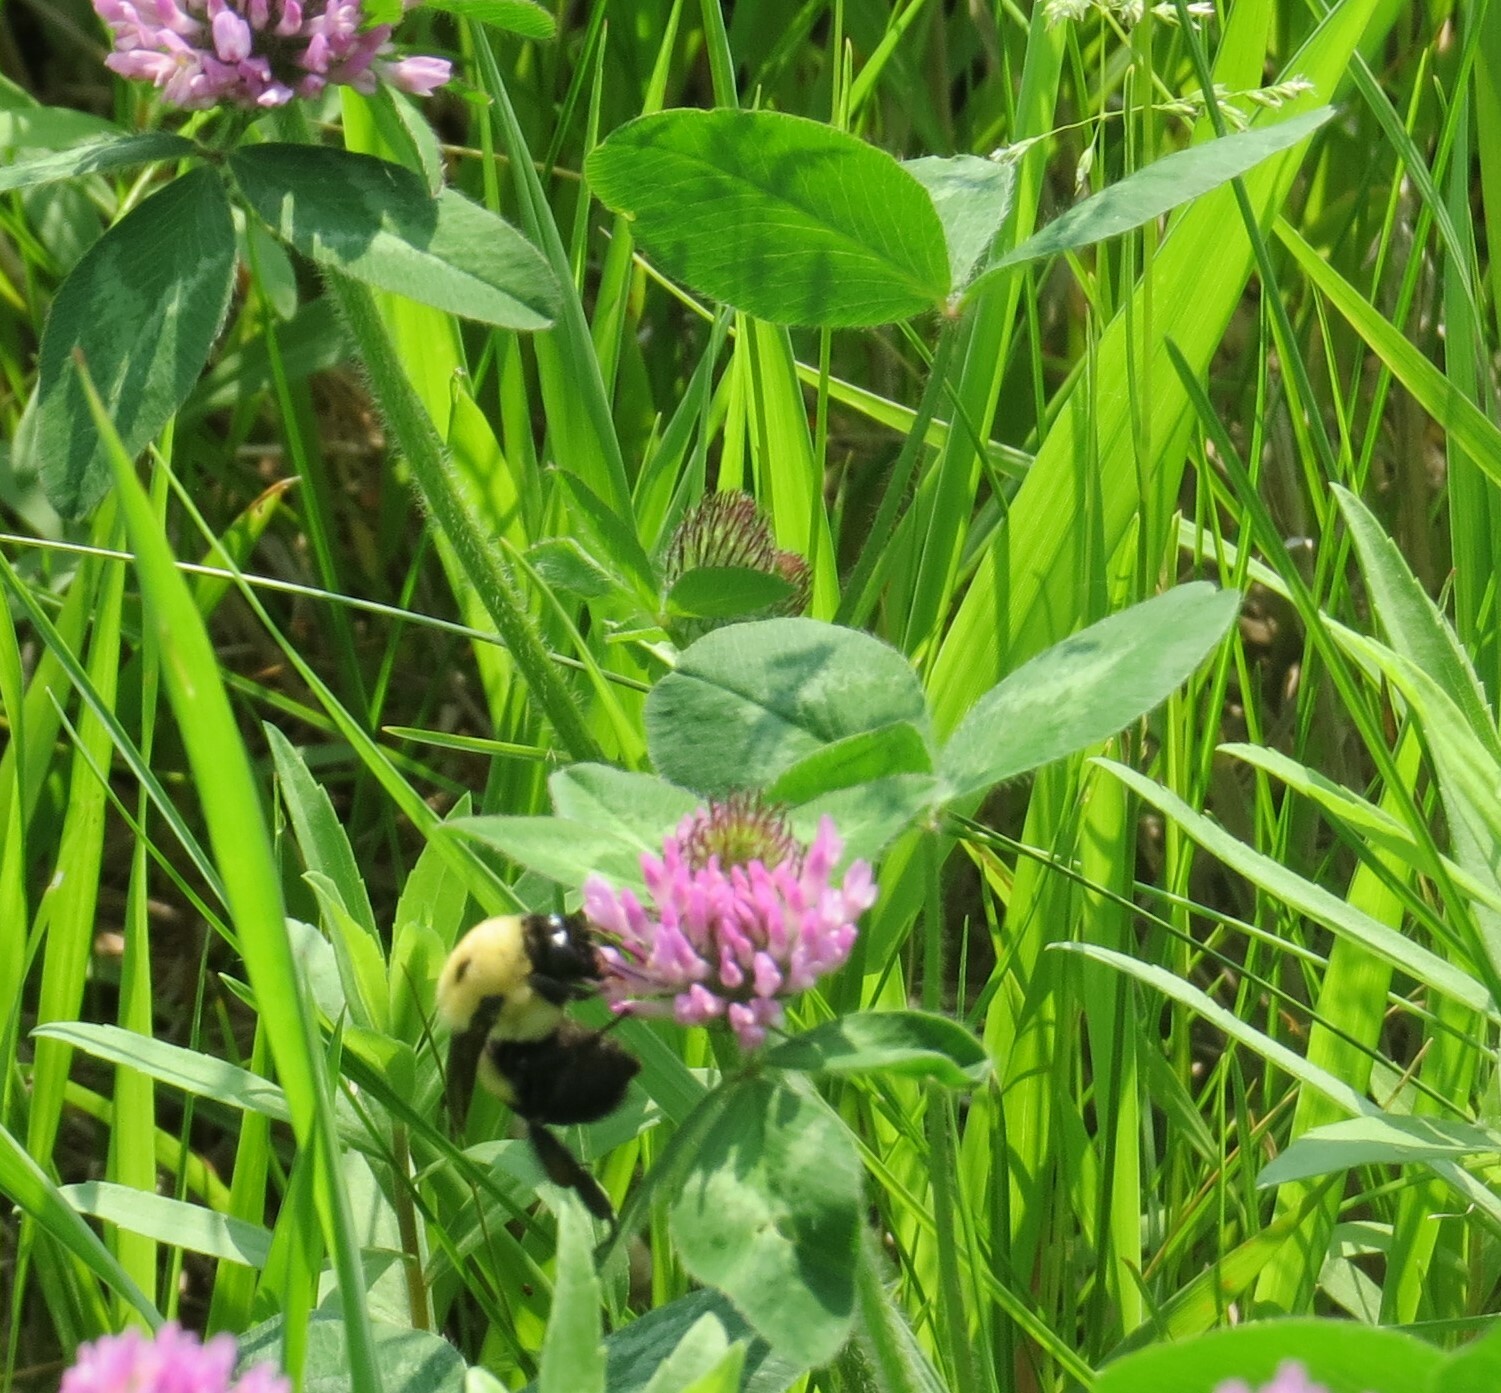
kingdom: Animalia
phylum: Arthropoda
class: Insecta
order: Hymenoptera
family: Apidae
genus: Bombus
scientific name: Bombus griseocollis
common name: Brown-belted bumble bee
